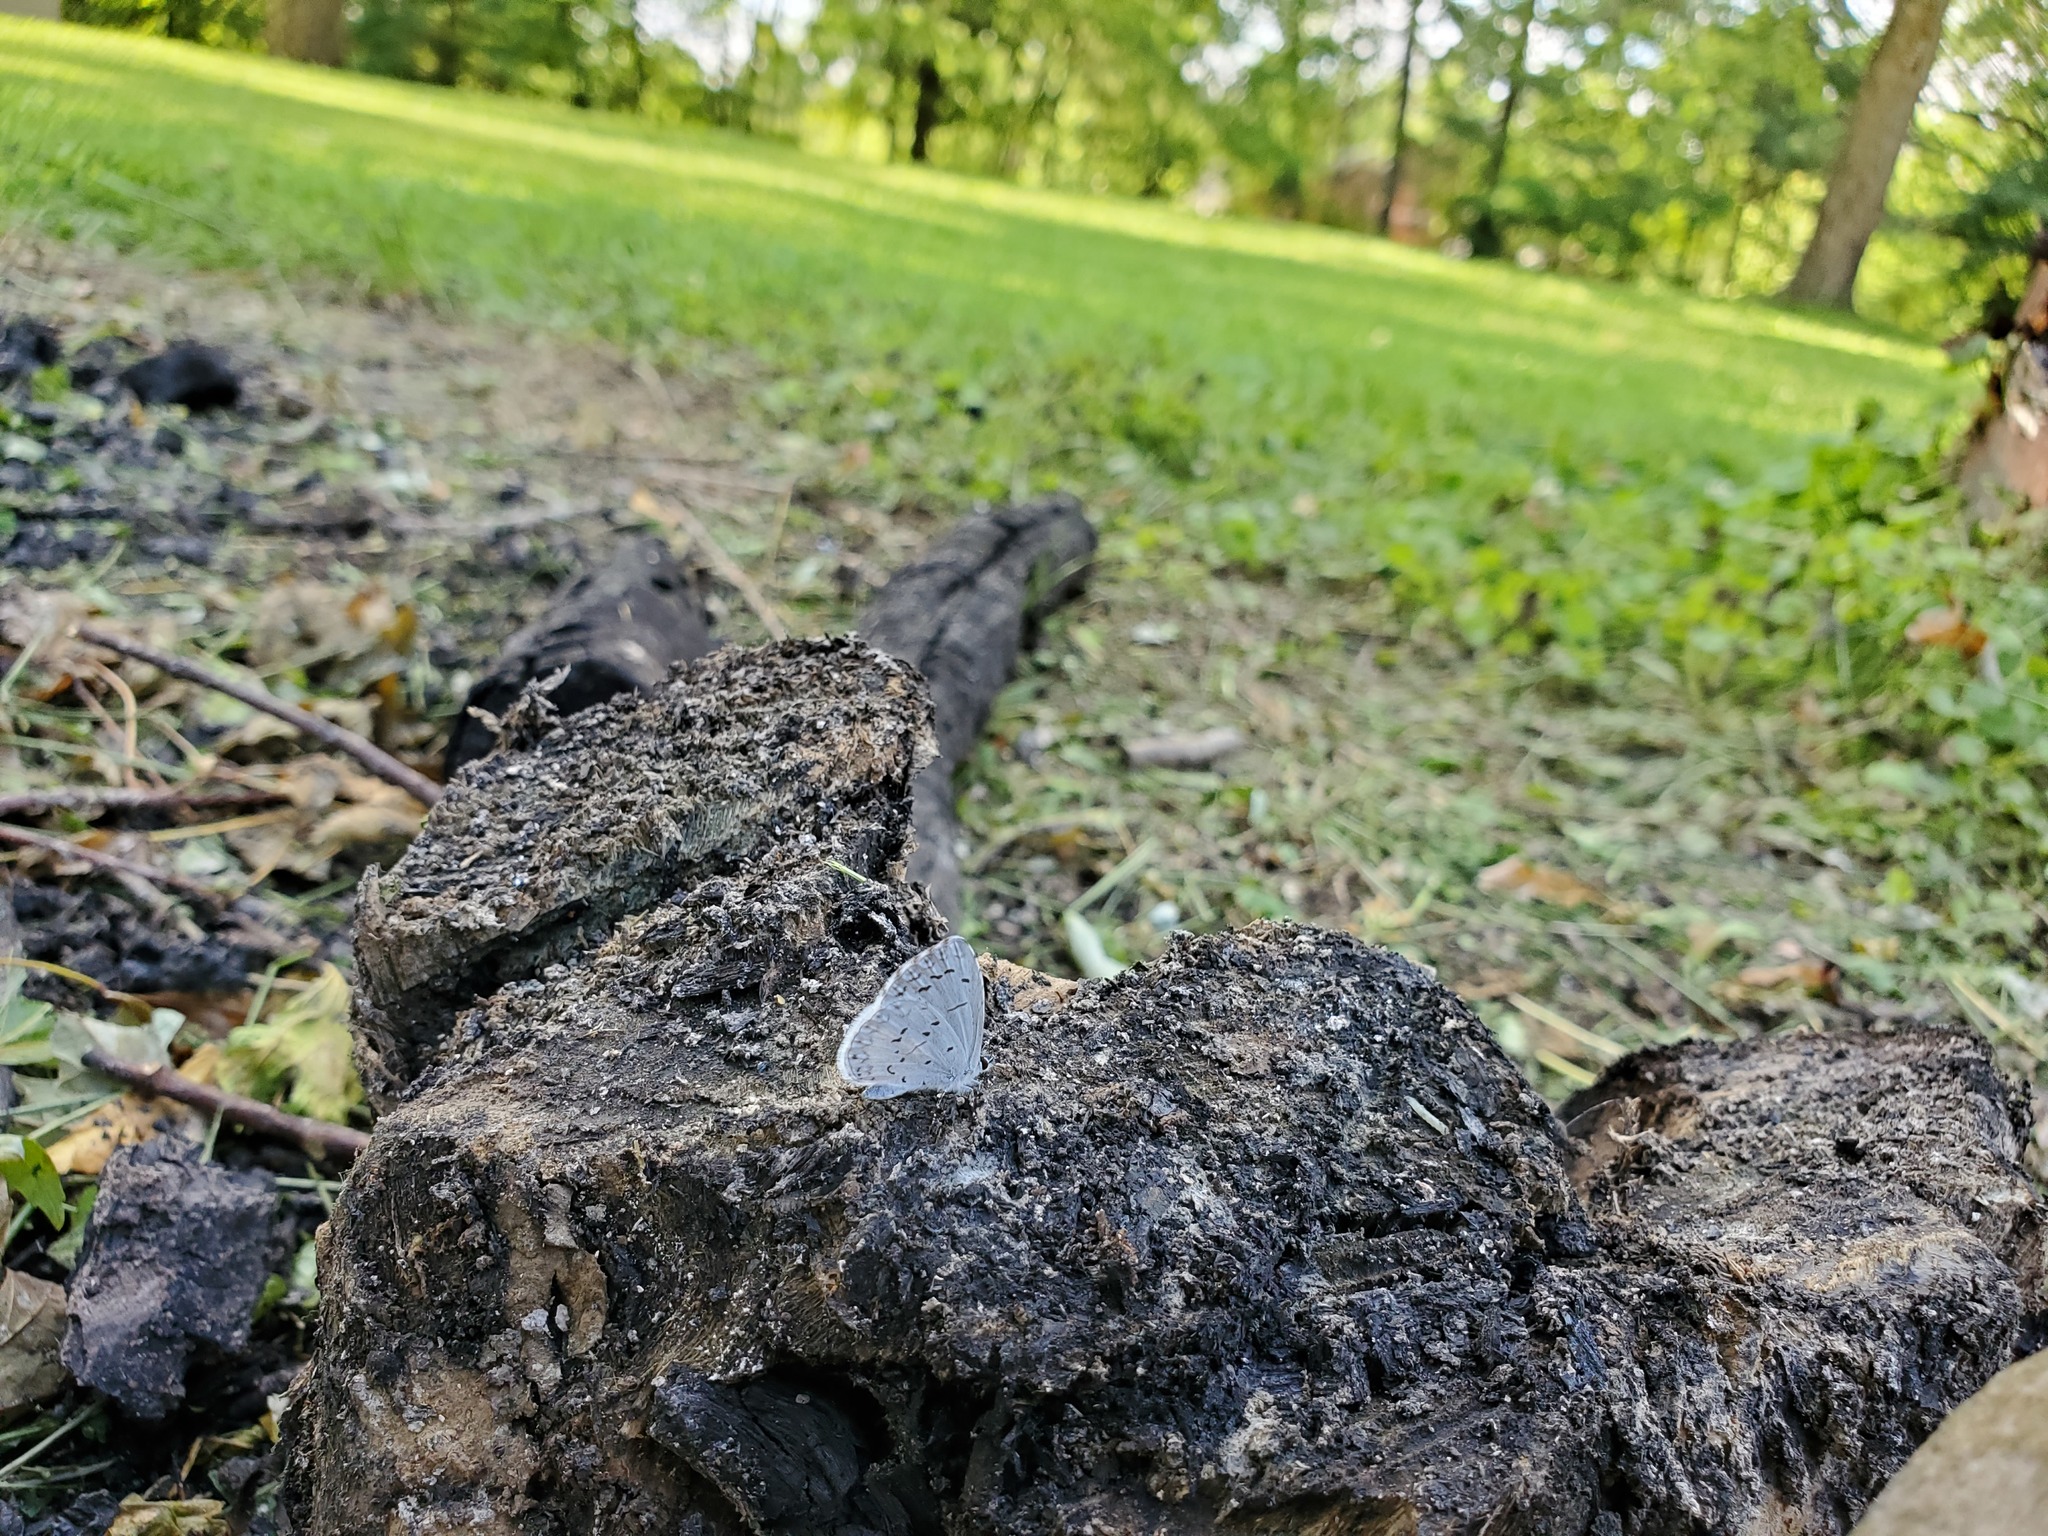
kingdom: Animalia
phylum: Arthropoda
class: Insecta
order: Lepidoptera
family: Lycaenidae
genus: Cyaniris
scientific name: Cyaniris neglecta
